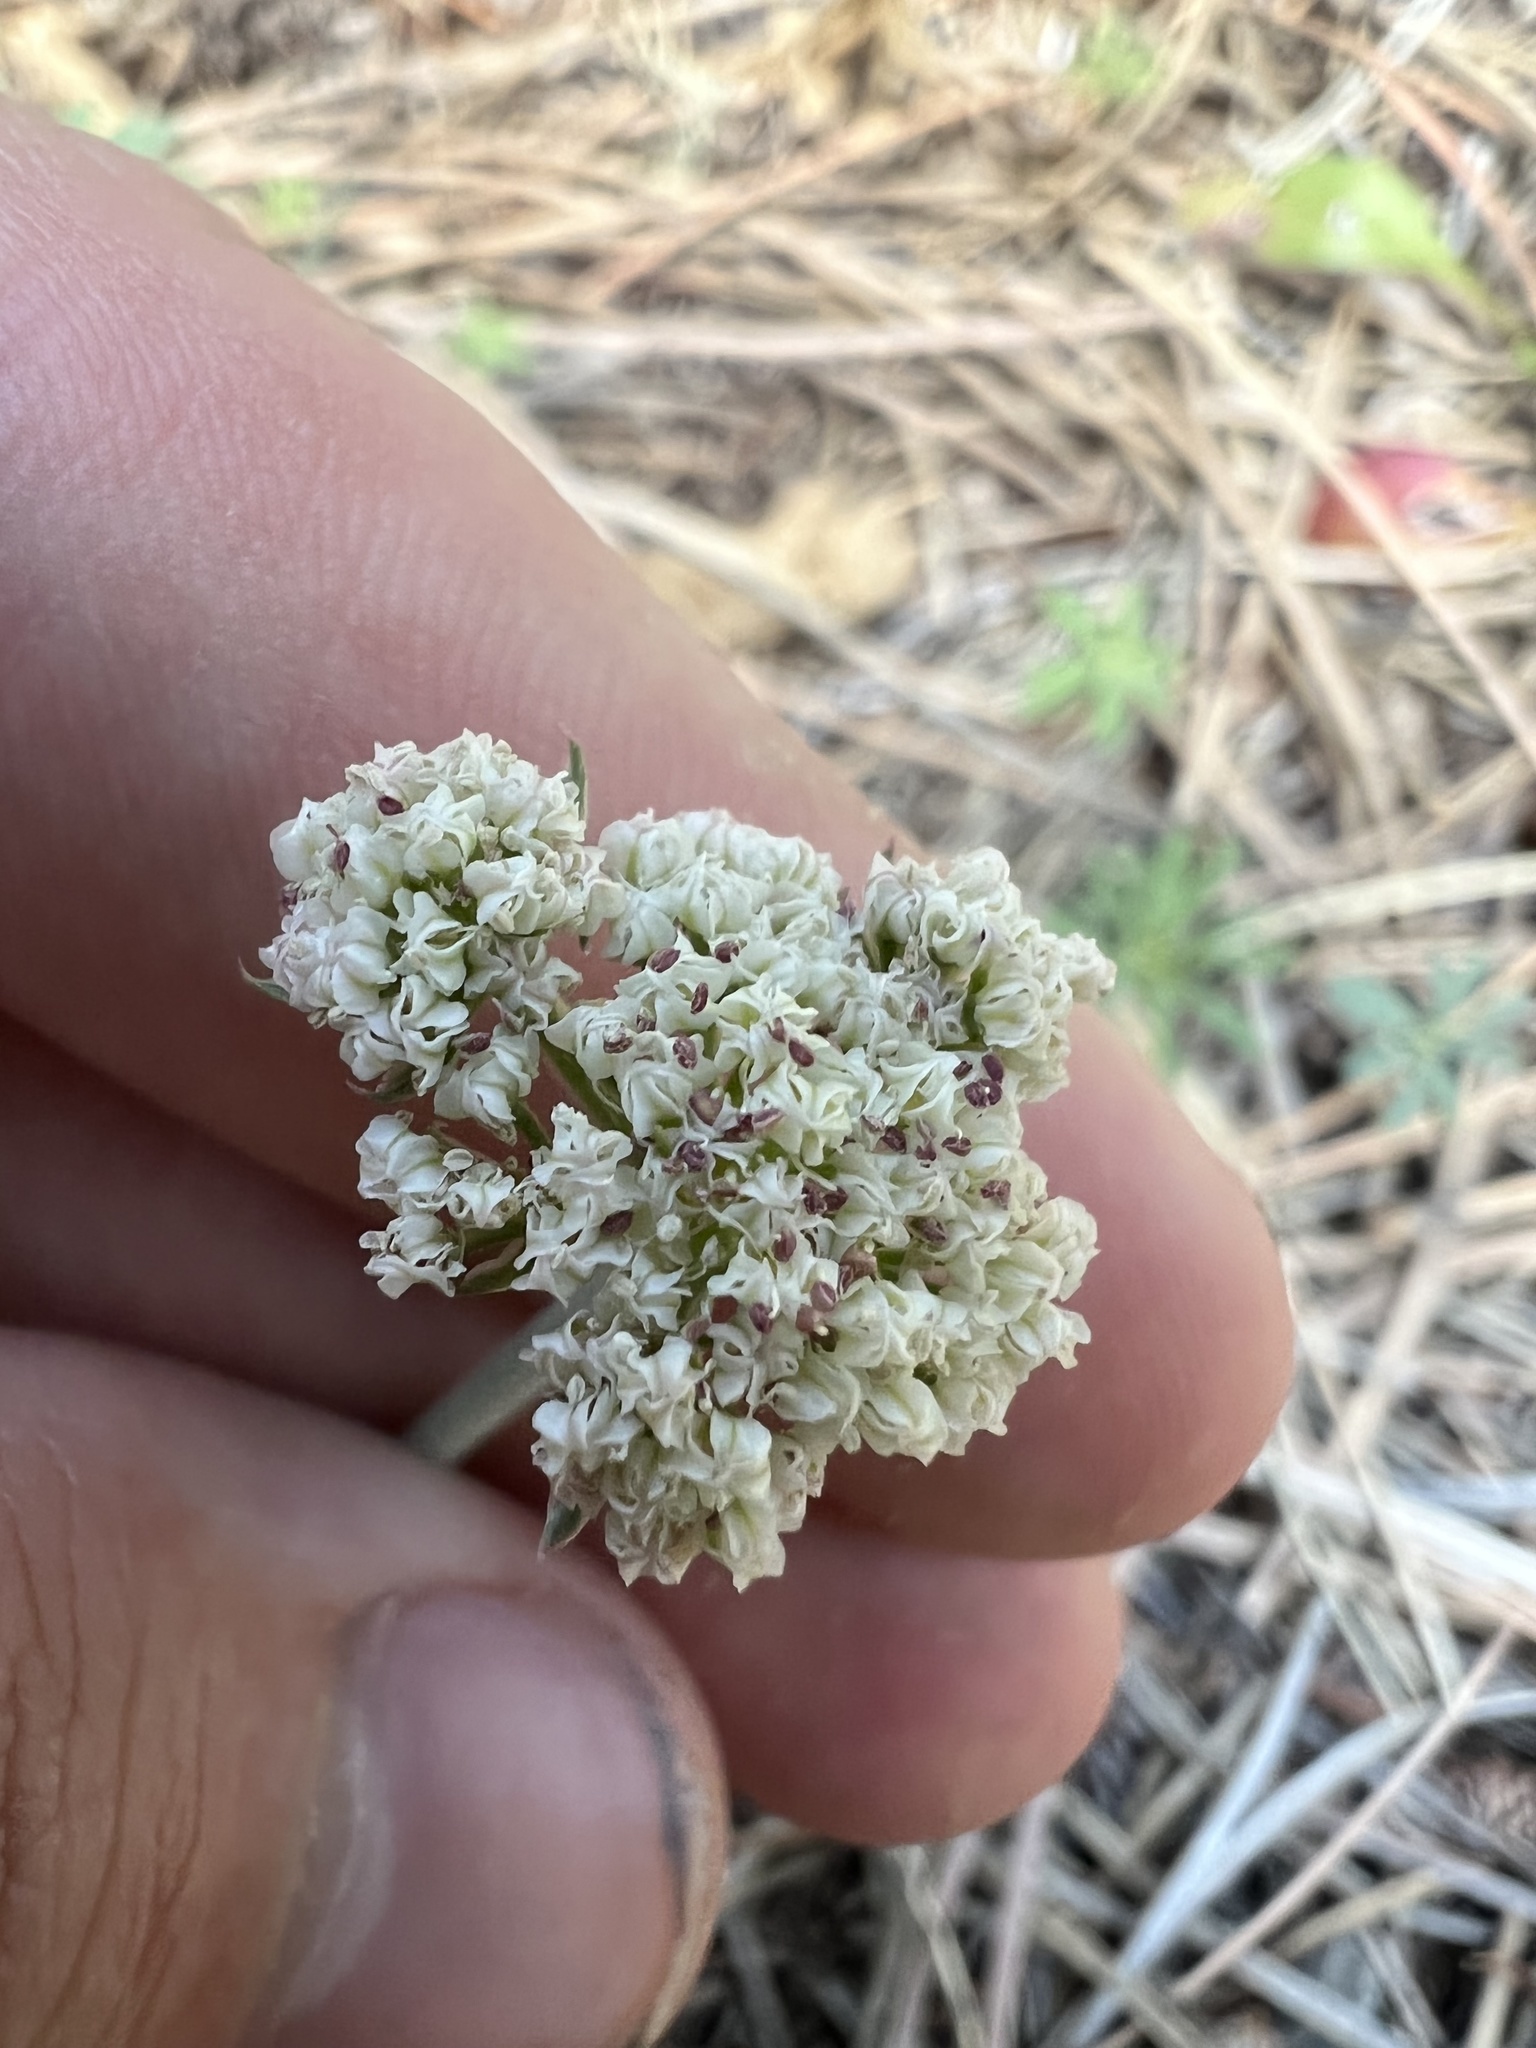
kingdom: Plantae
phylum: Tracheophyta
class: Magnoliopsida
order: Apiales
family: Apiaceae
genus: Lomatium
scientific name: Lomatium orientale
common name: Eastern cous
